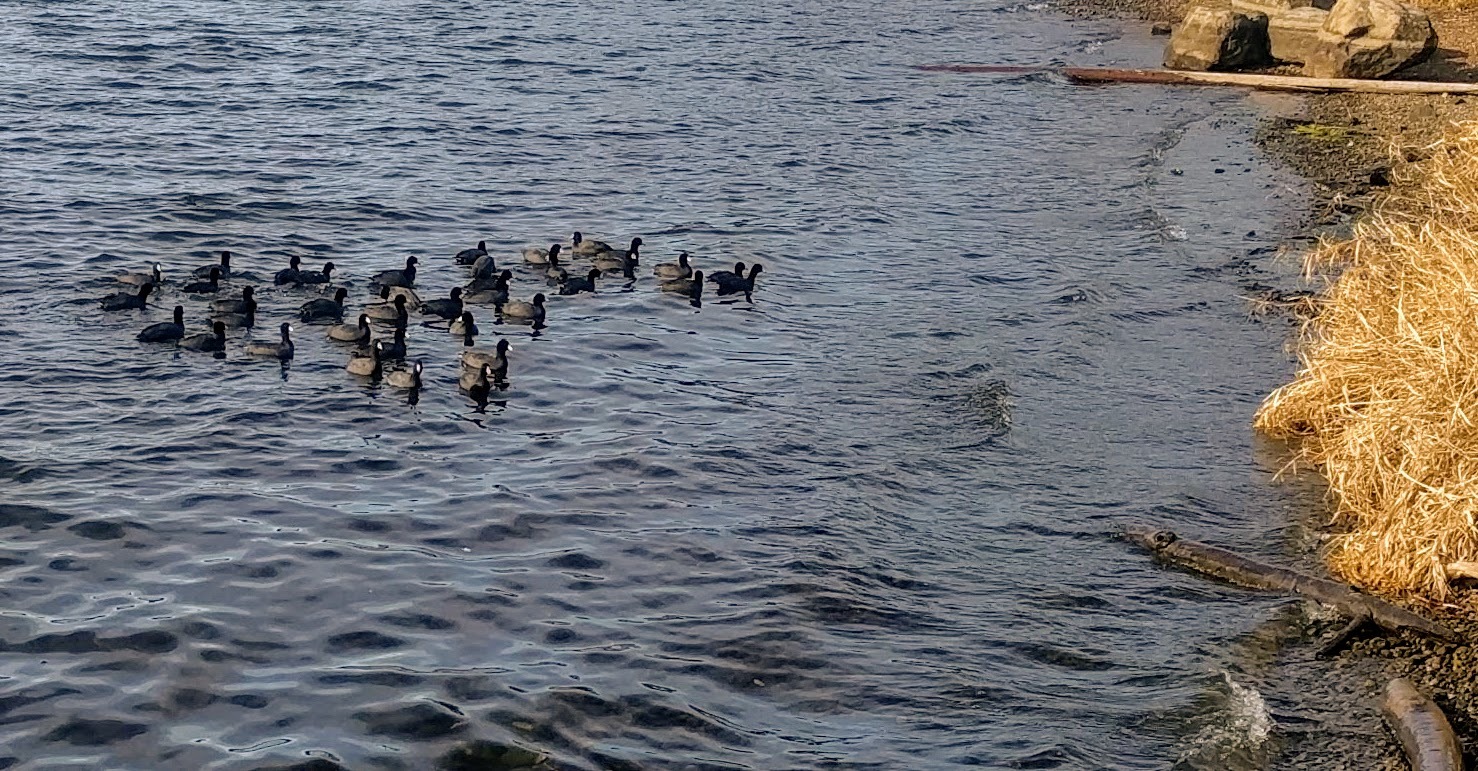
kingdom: Animalia
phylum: Chordata
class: Aves
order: Gruiformes
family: Rallidae
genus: Fulica
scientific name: Fulica americana
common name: American coot
